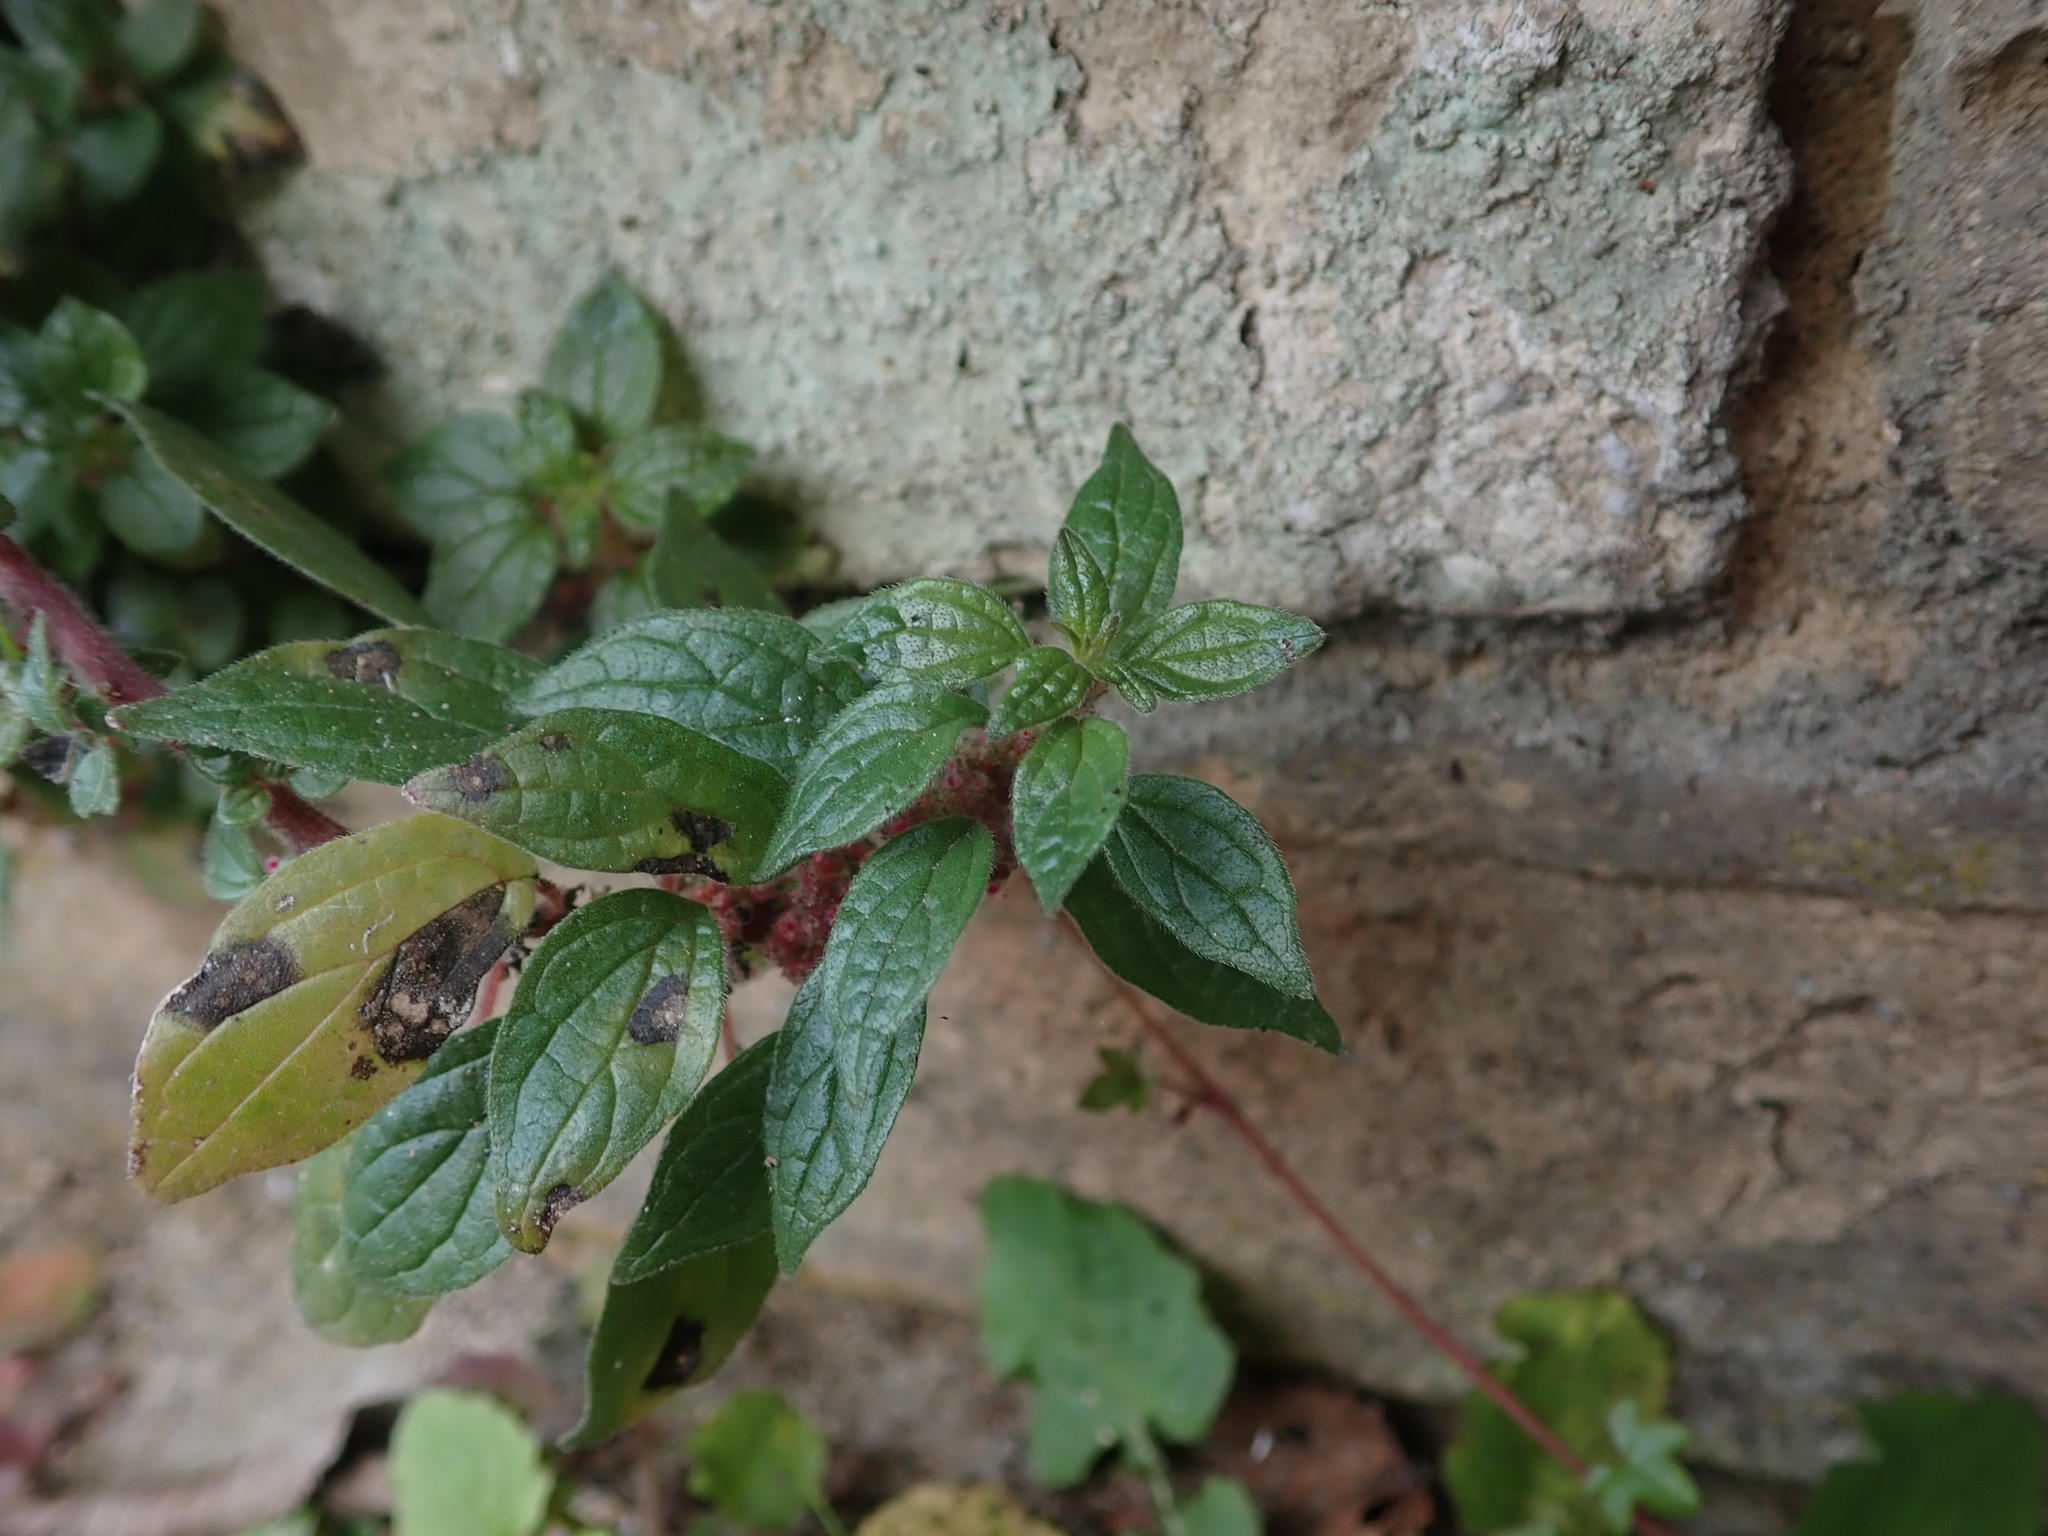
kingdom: Plantae
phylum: Tracheophyta
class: Magnoliopsida
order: Rosales
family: Urticaceae
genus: Parietaria
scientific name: Parietaria judaica
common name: Pellitory-of-the-wall
